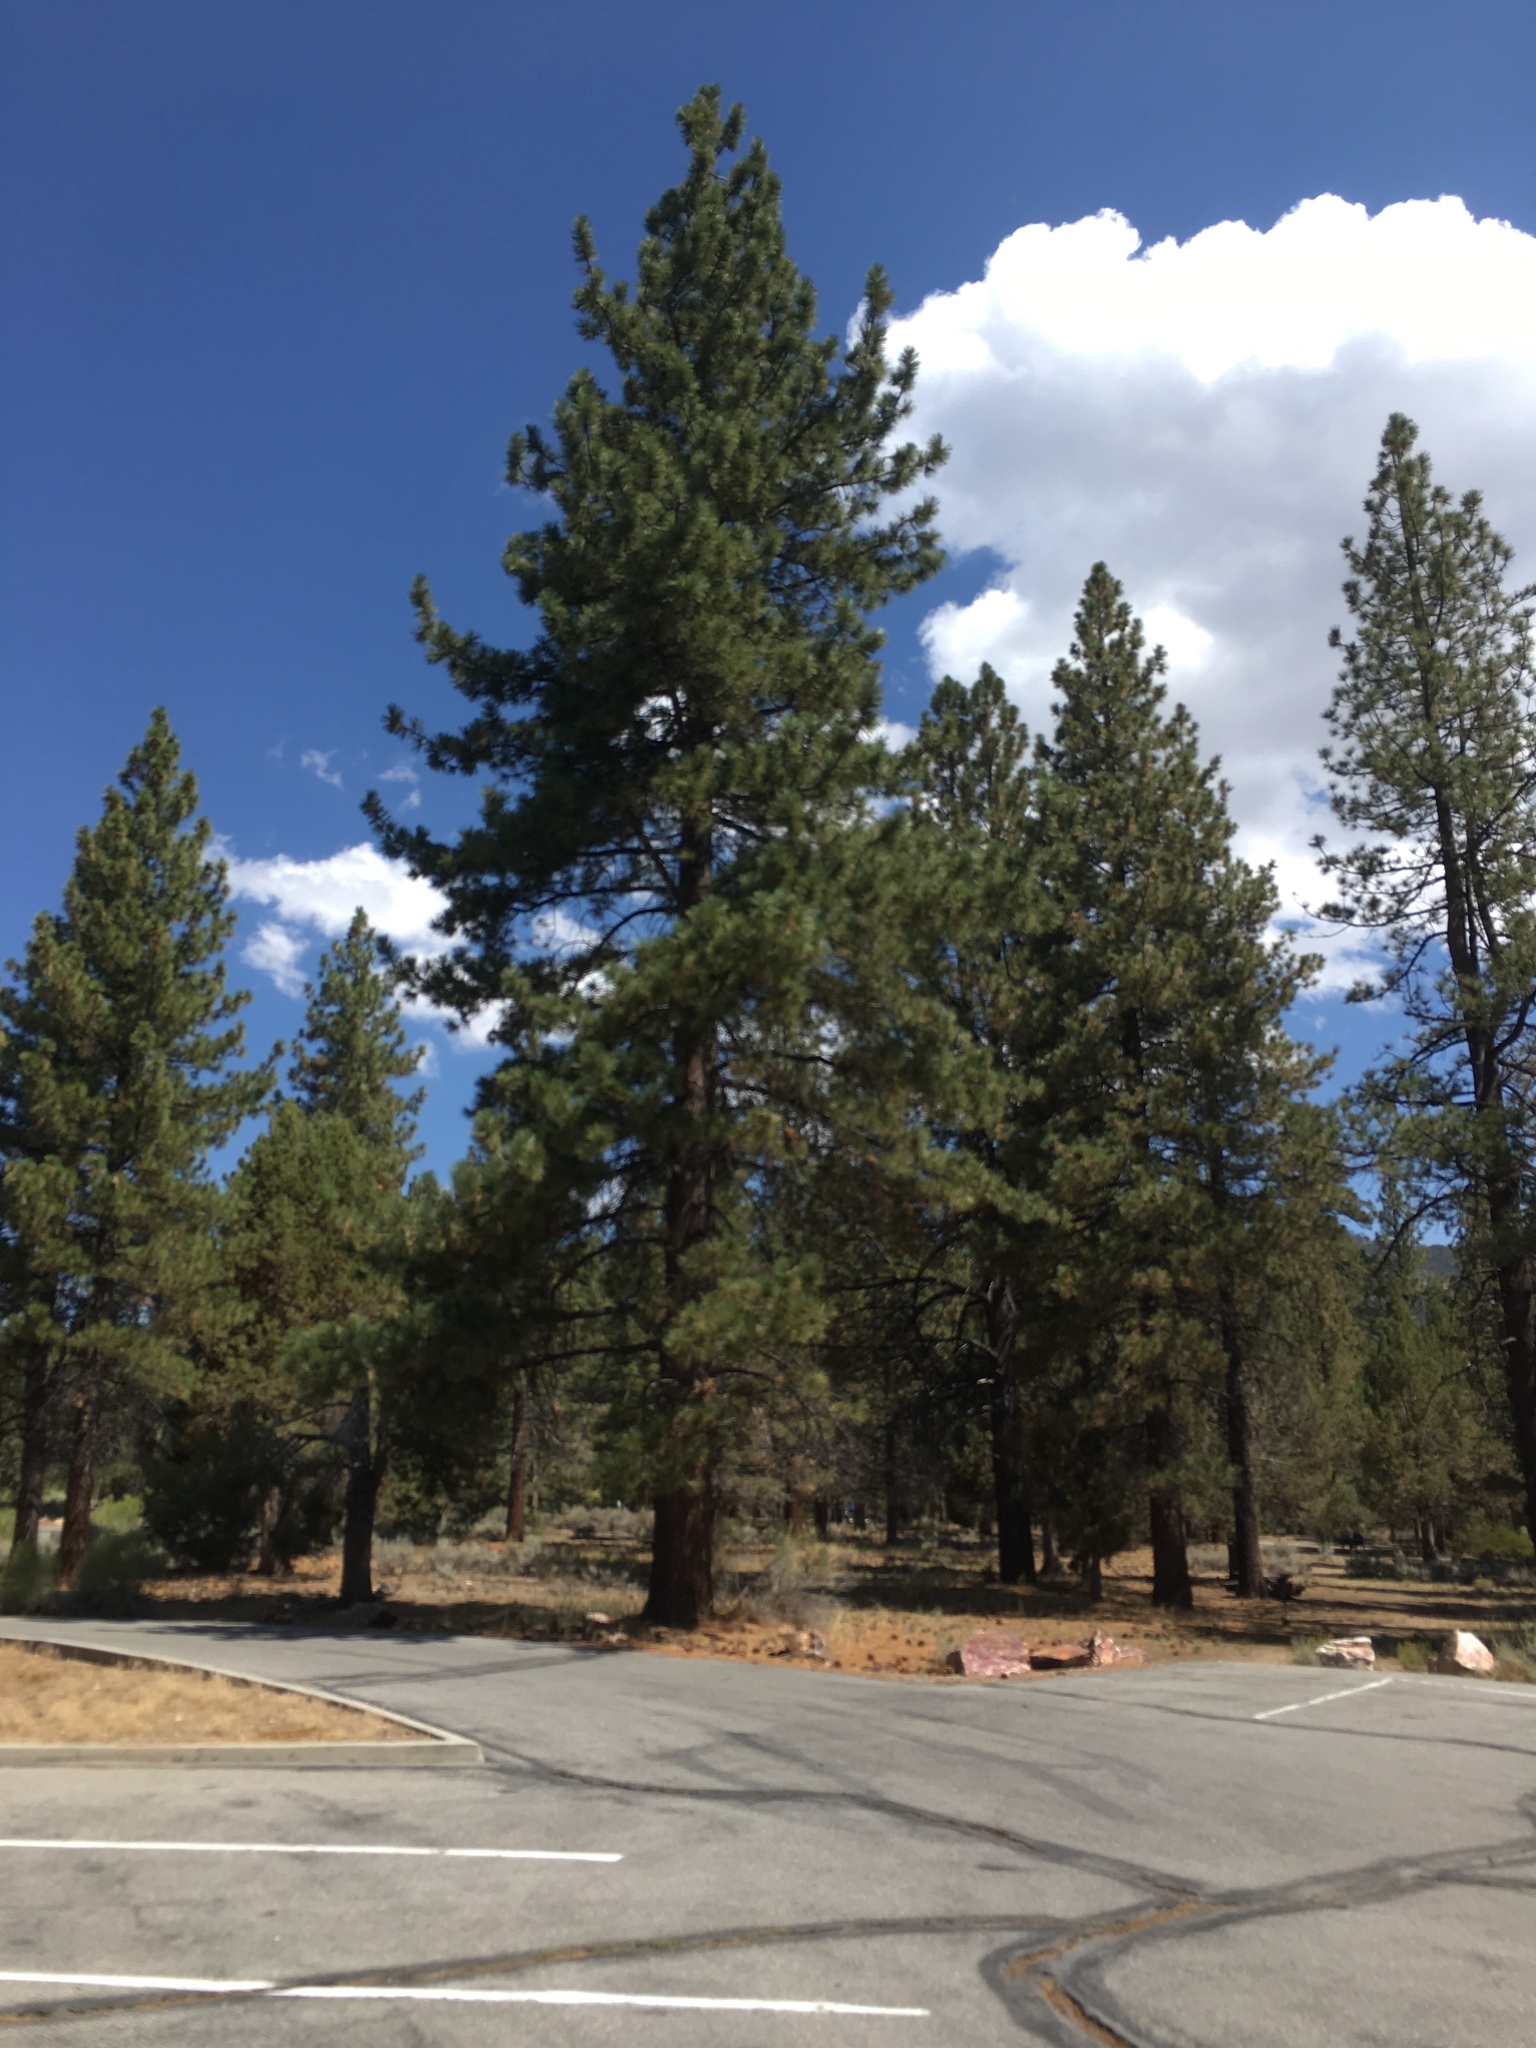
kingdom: Plantae
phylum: Tracheophyta
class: Pinopsida
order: Pinales
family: Pinaceae
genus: Pinus
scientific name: Pinus jeffreyi
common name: Jeffrey pine
